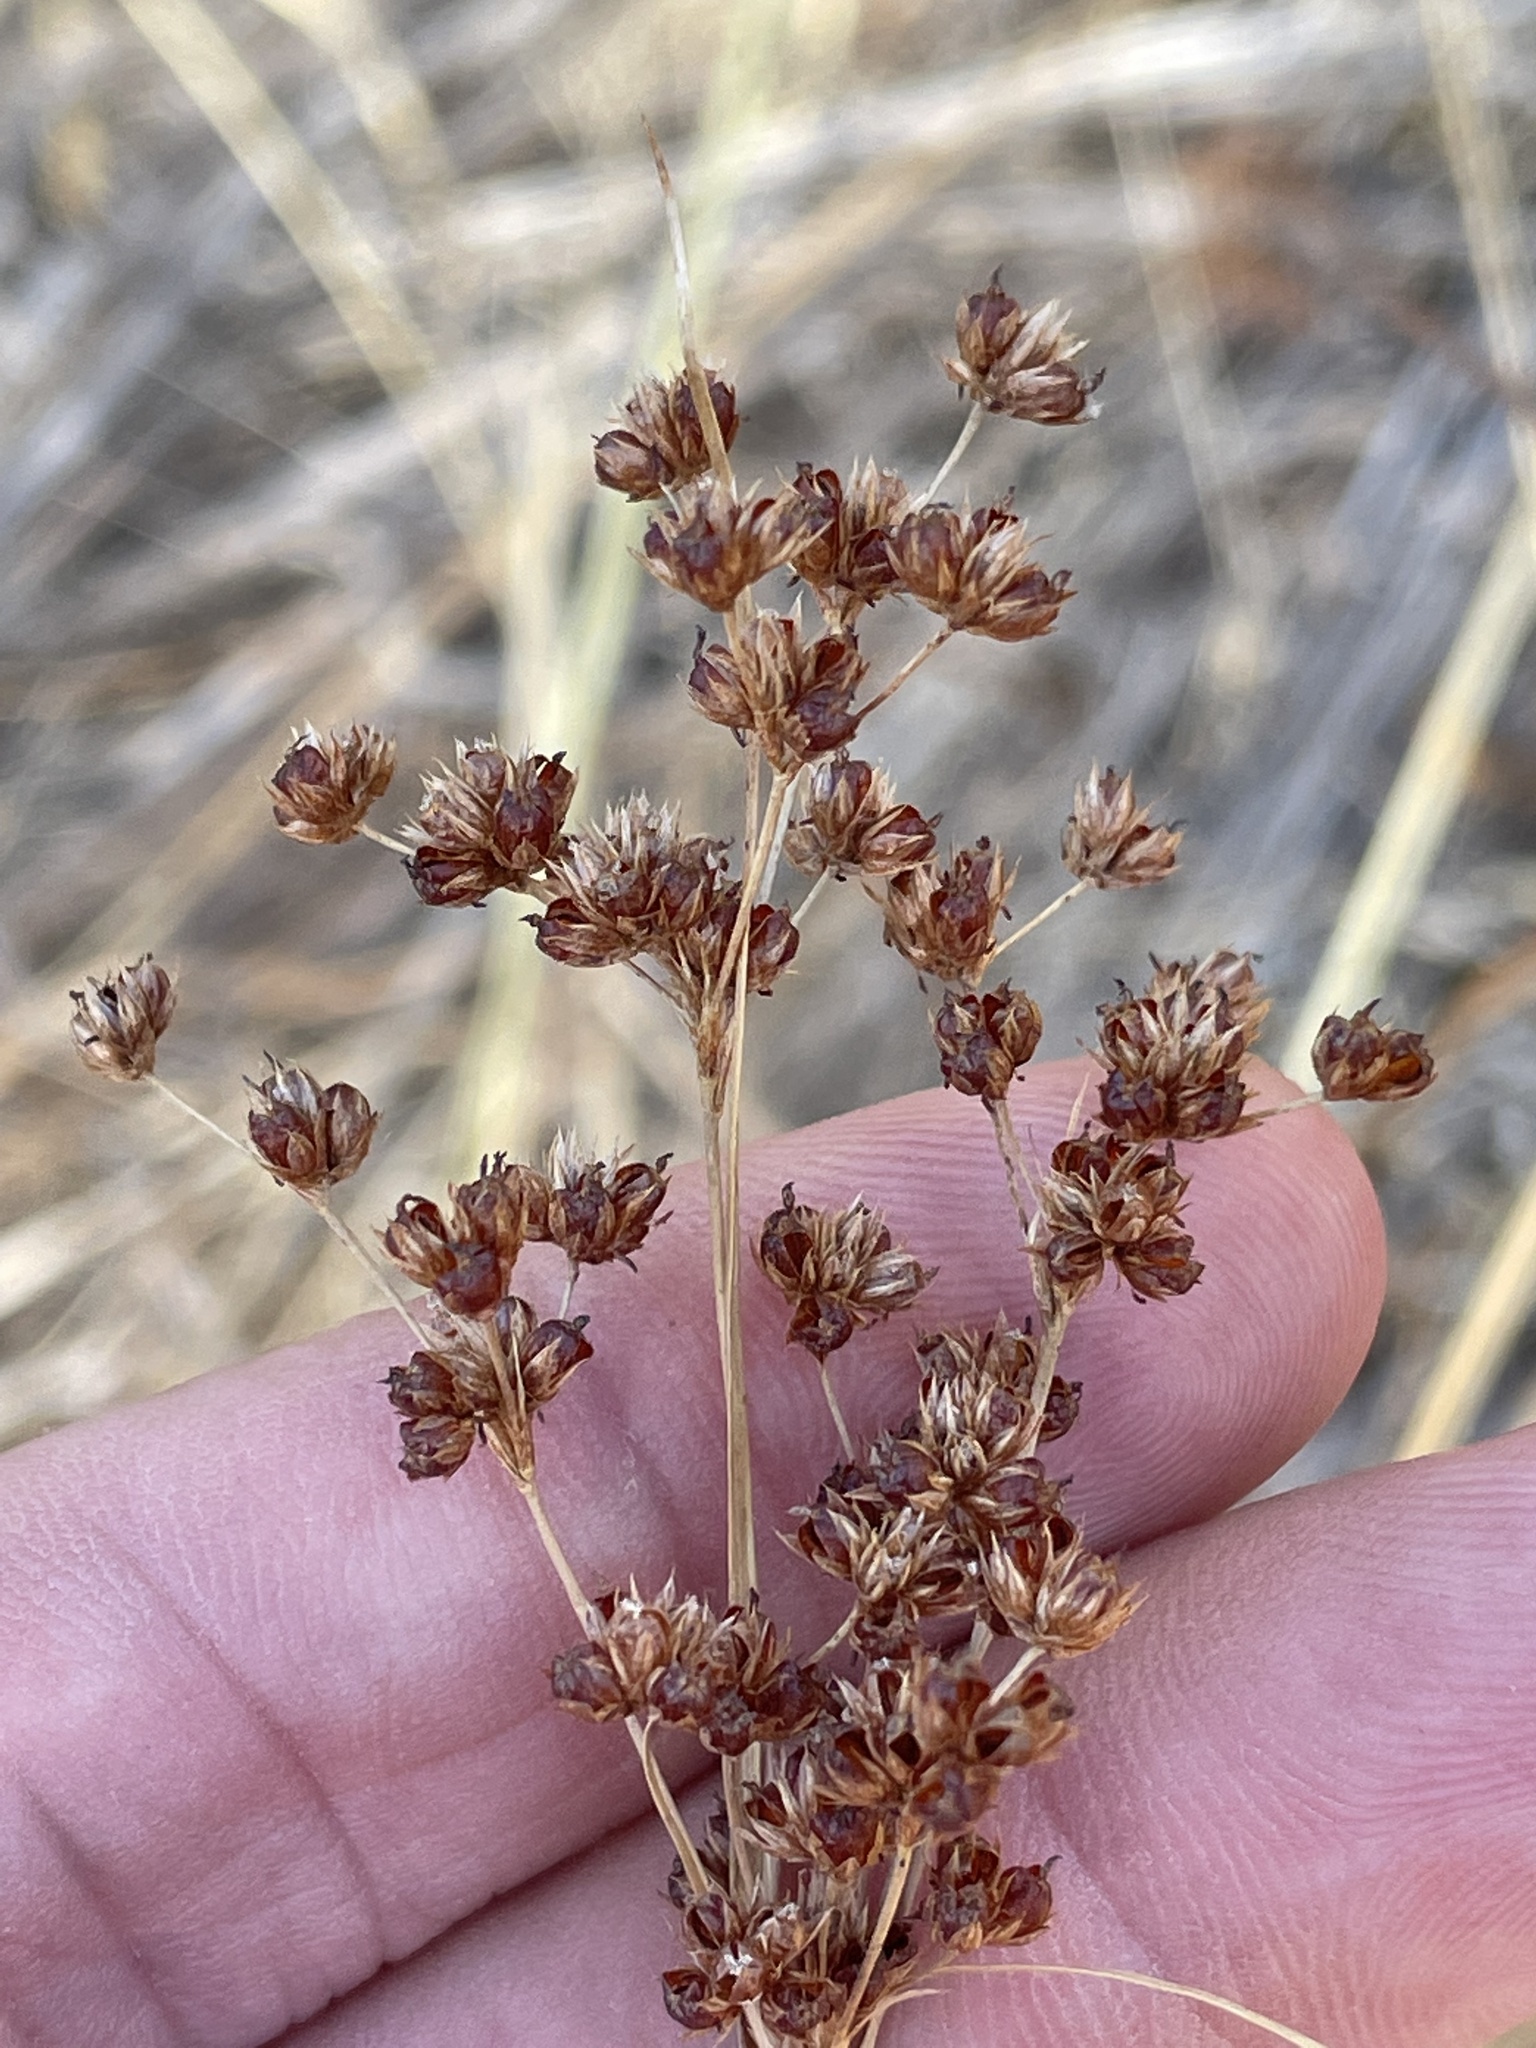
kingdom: Plantae
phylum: Tracheophyta
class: Liliopsida
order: Poales
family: Juncaceae
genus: Juncus
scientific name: Juncus marginatus
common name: Grass-leaf rush
